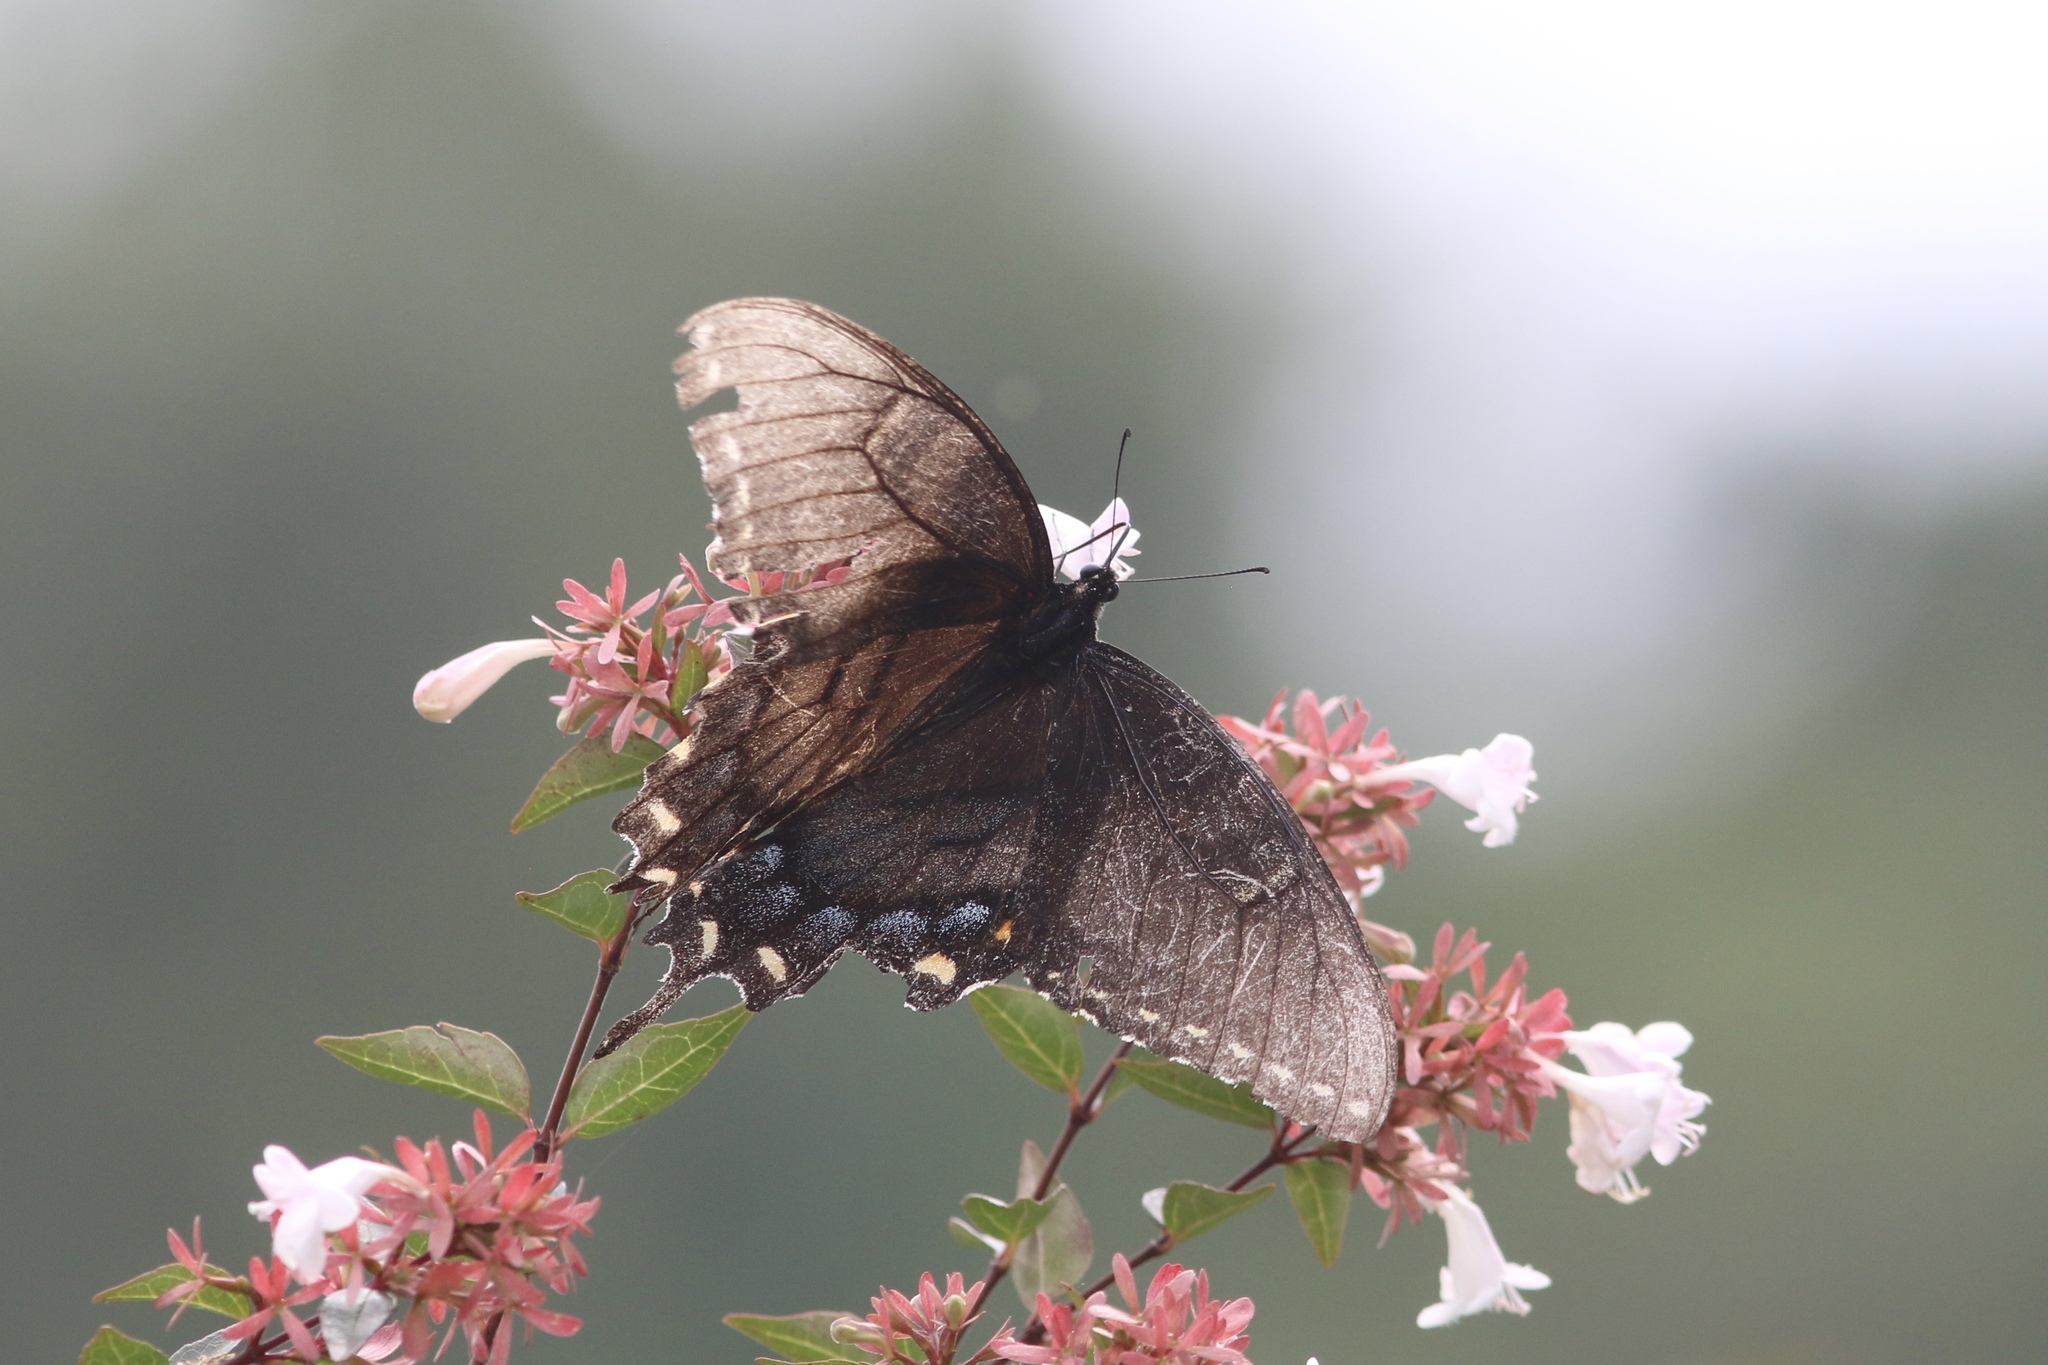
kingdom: Animalia
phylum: Arthropoda
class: Insecta
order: Lepidoptera
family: Papilionidae
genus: Papilio
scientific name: Papilio glaucus
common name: Tiger swallowtail
